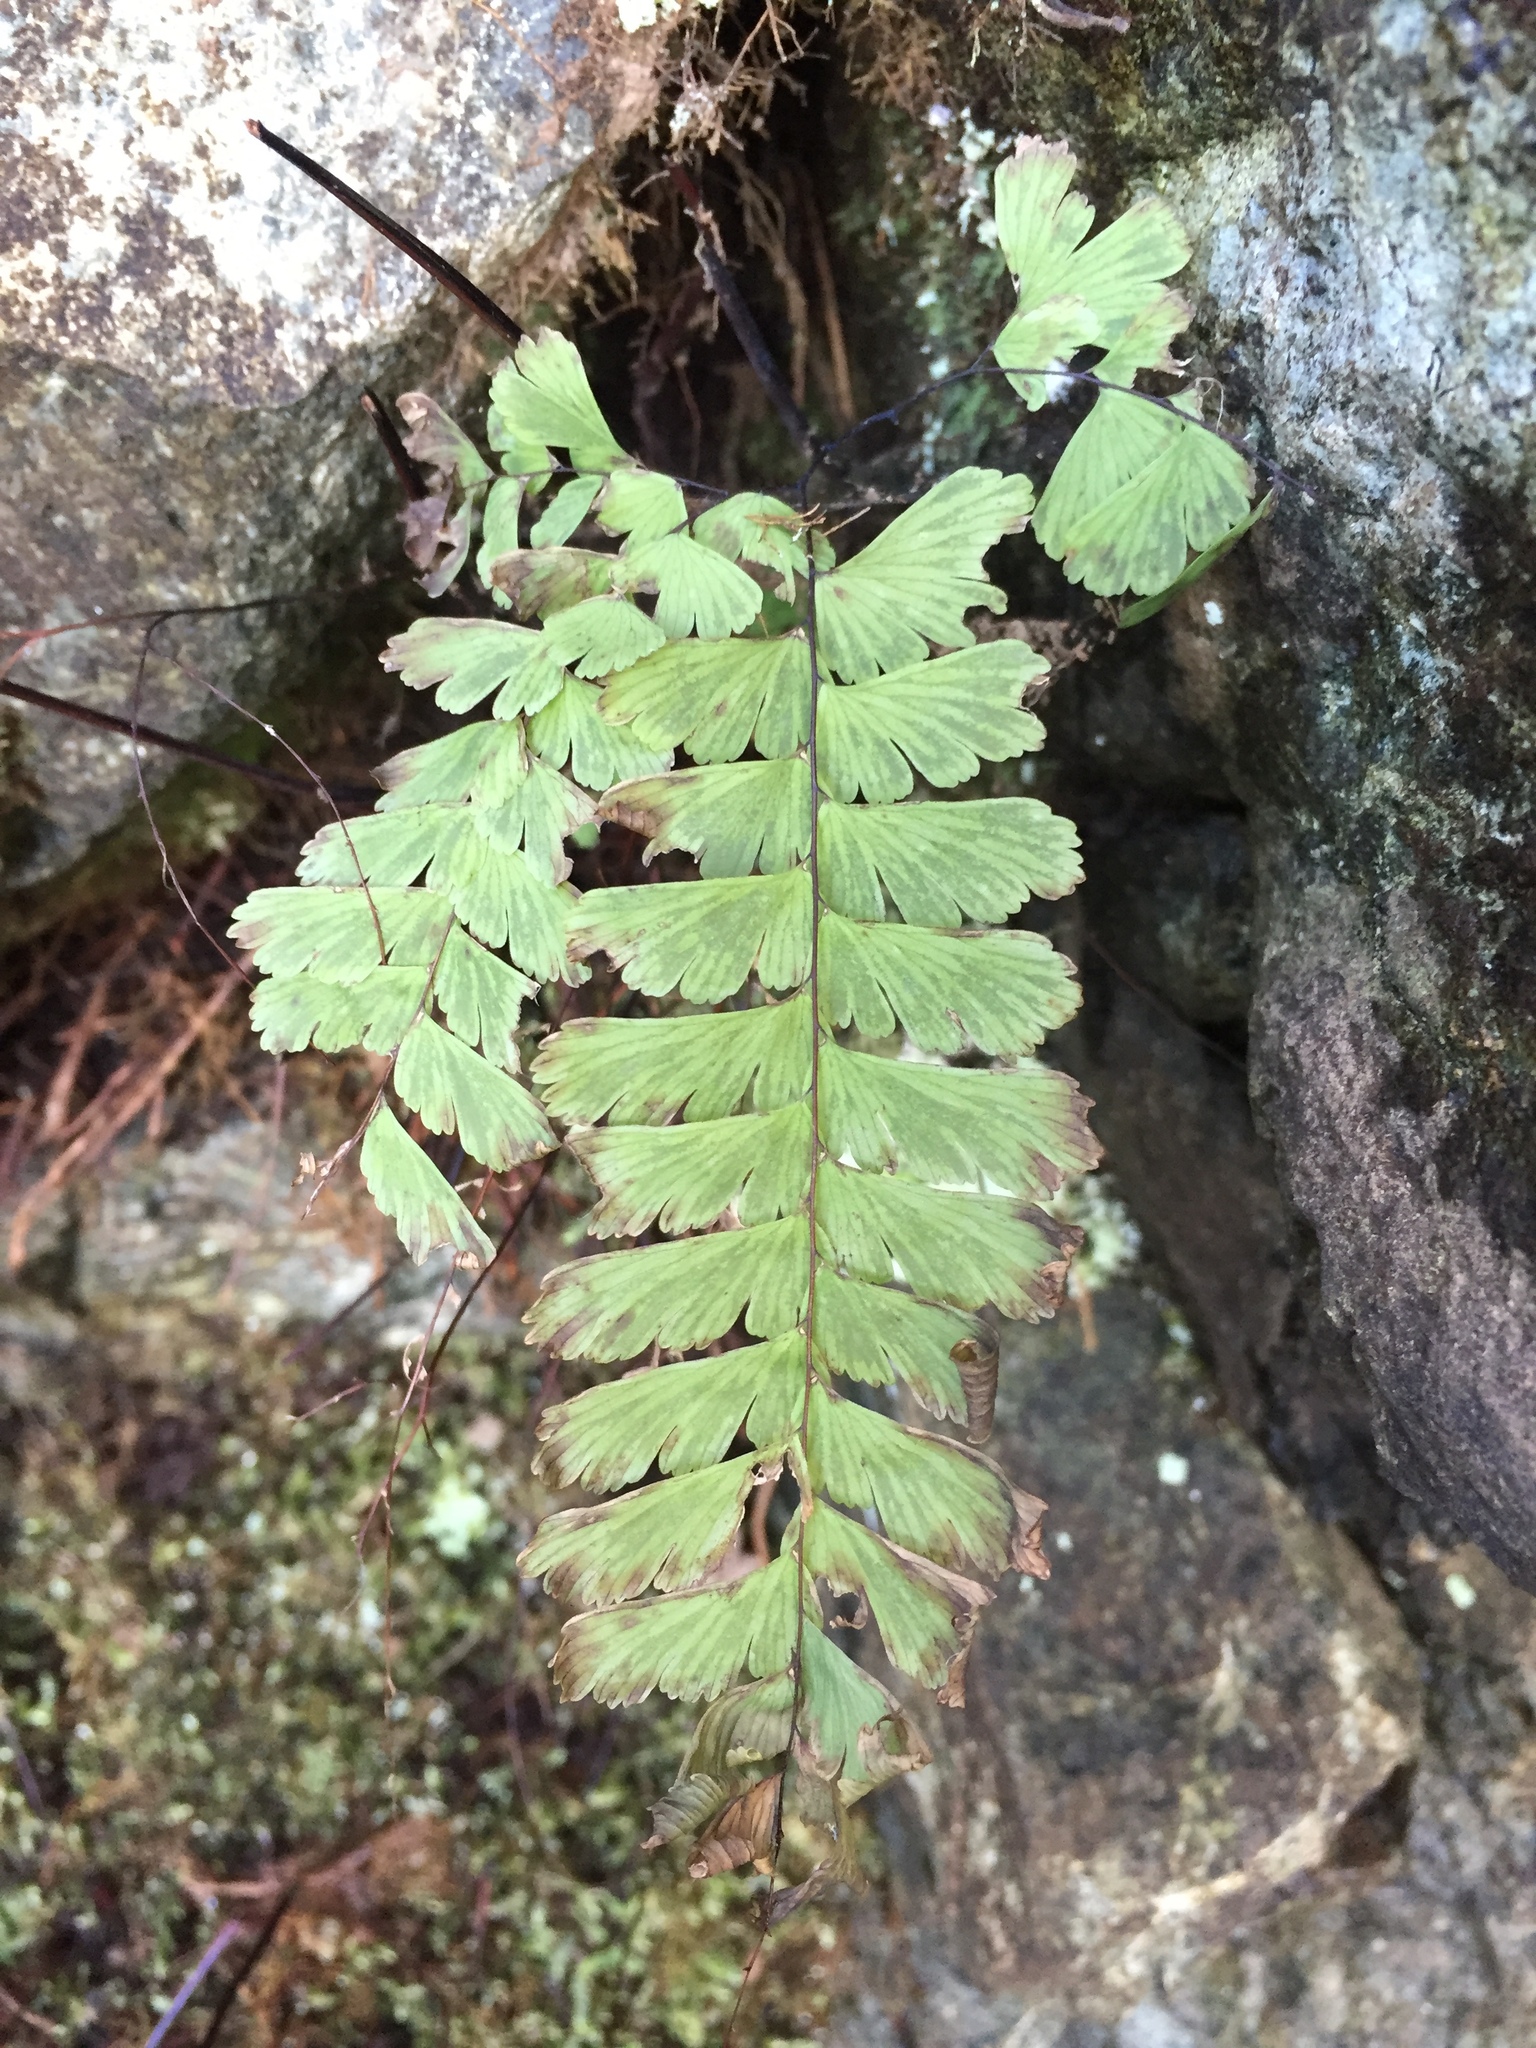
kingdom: Plantae
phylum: Tracheophyta
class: Polypodiopsida
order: Polypodiales
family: Pteridaceae
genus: Adiantum
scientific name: Adiantum aleuticum
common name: Aleutian maidenhair fern
